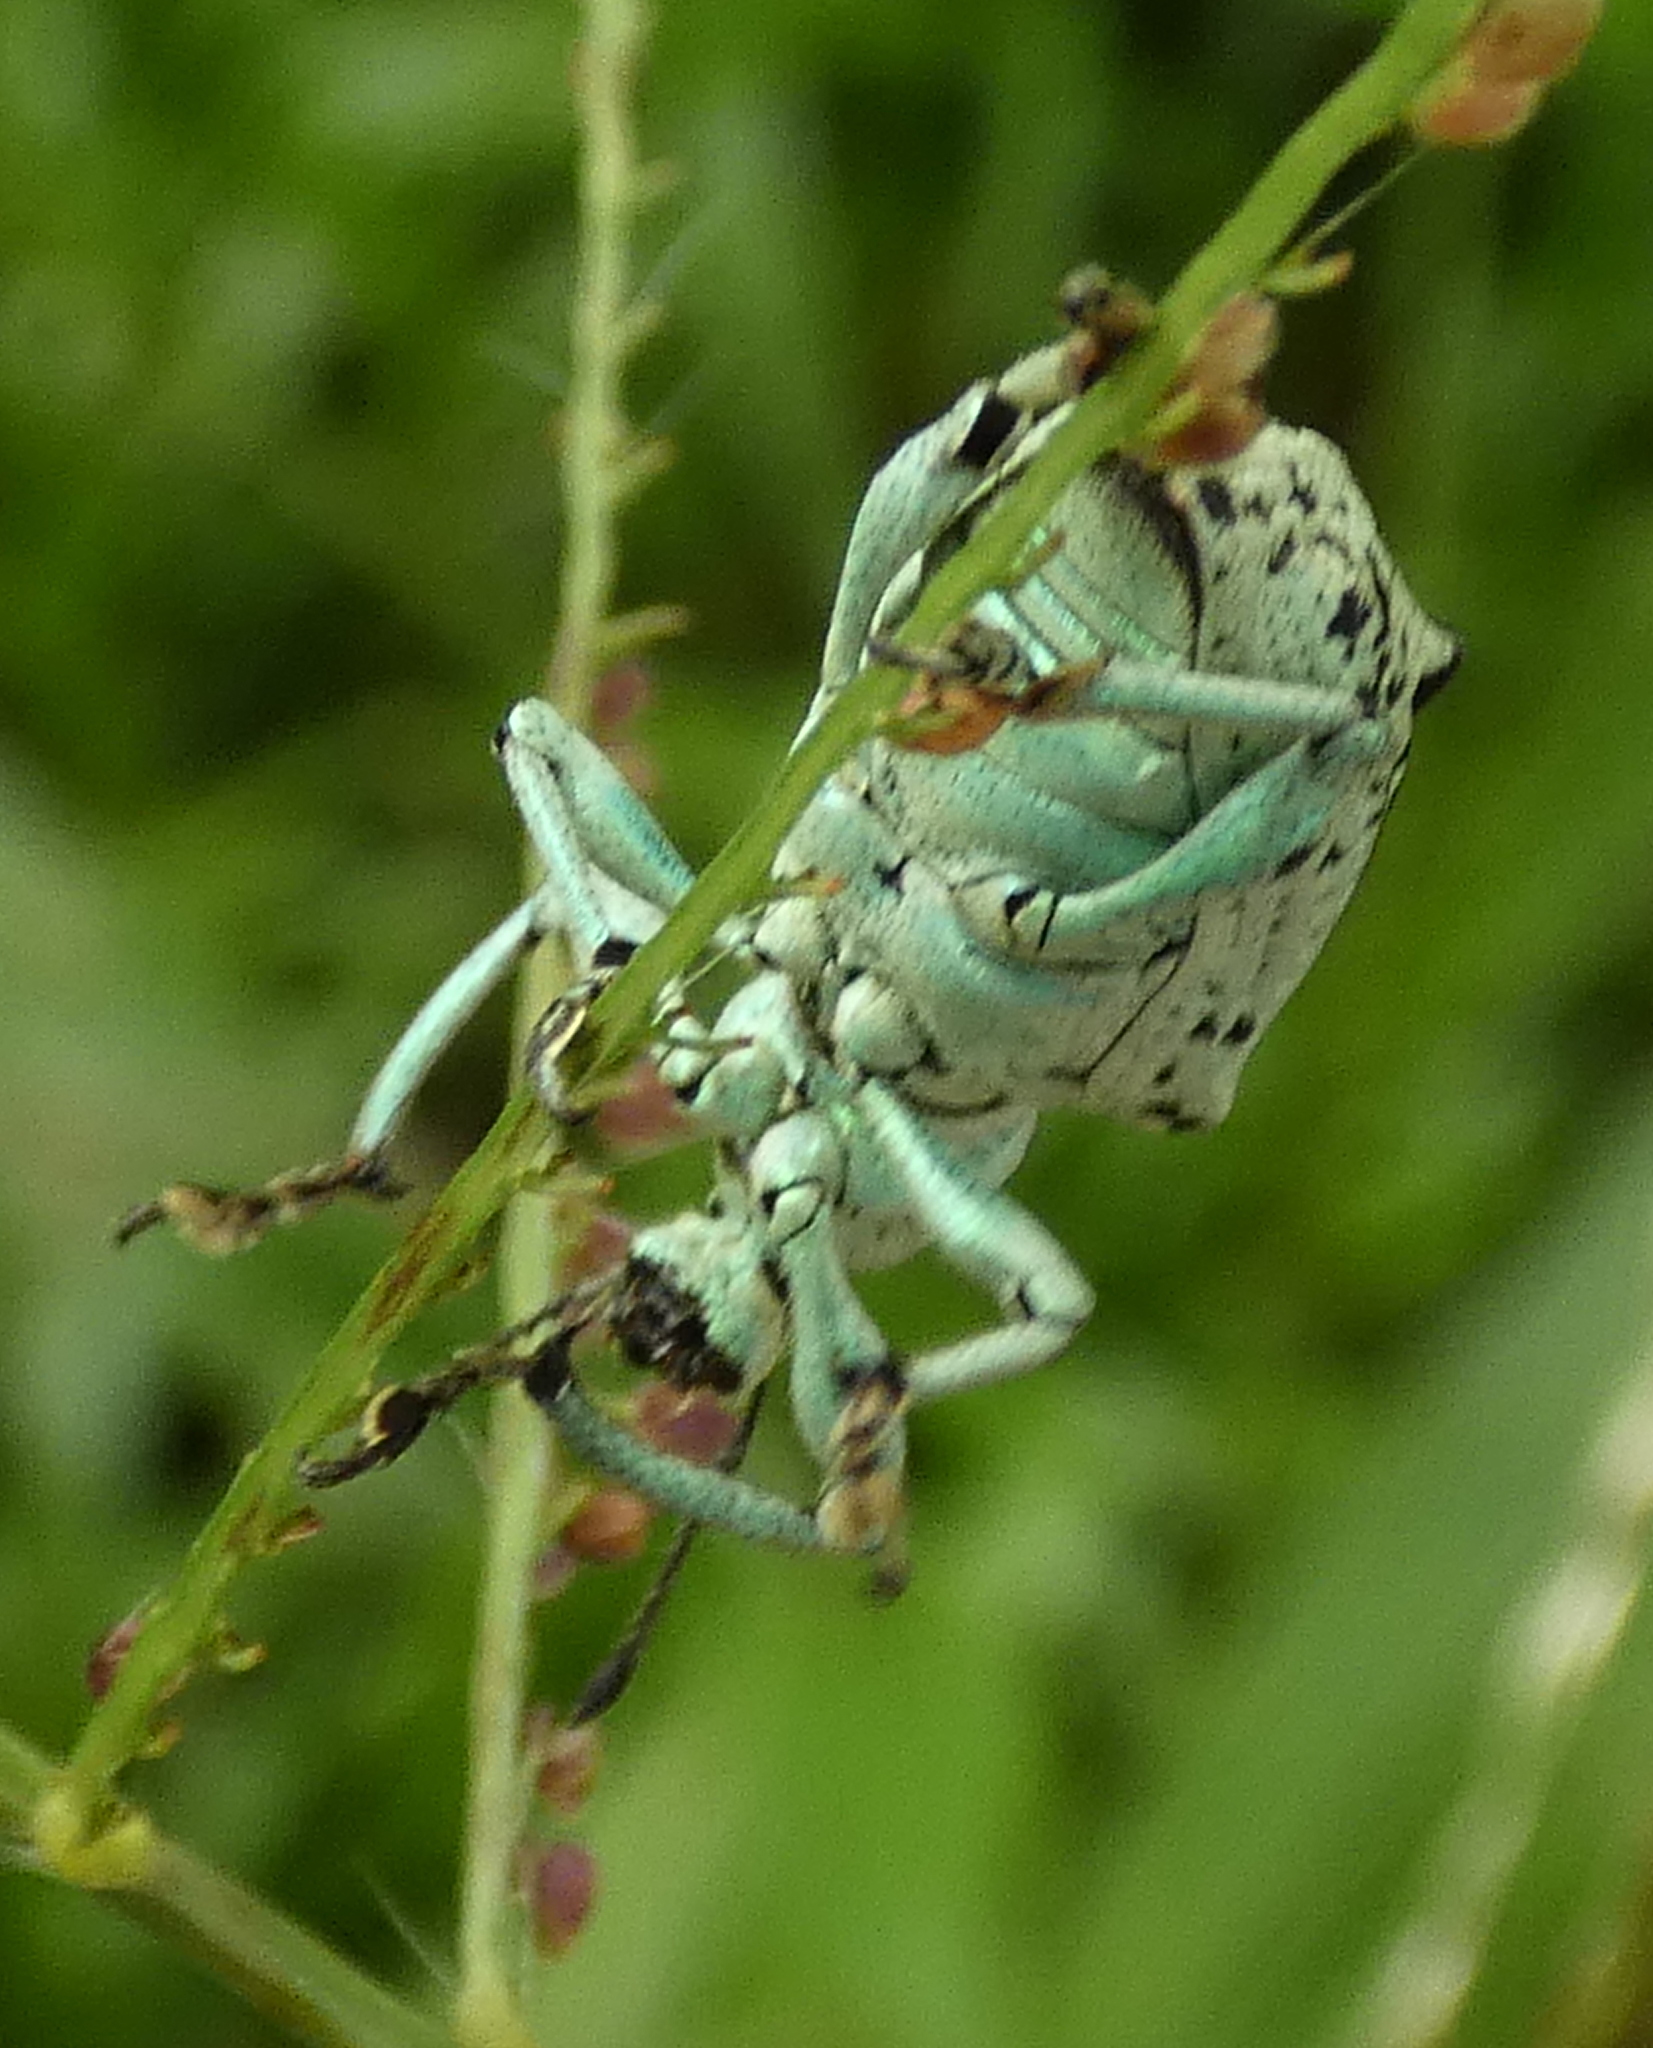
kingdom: Animalia
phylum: Arthropoda
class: Insecta
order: Coleoptera
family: Curculionidae
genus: Rhigus
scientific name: Rhigus dejeanii
